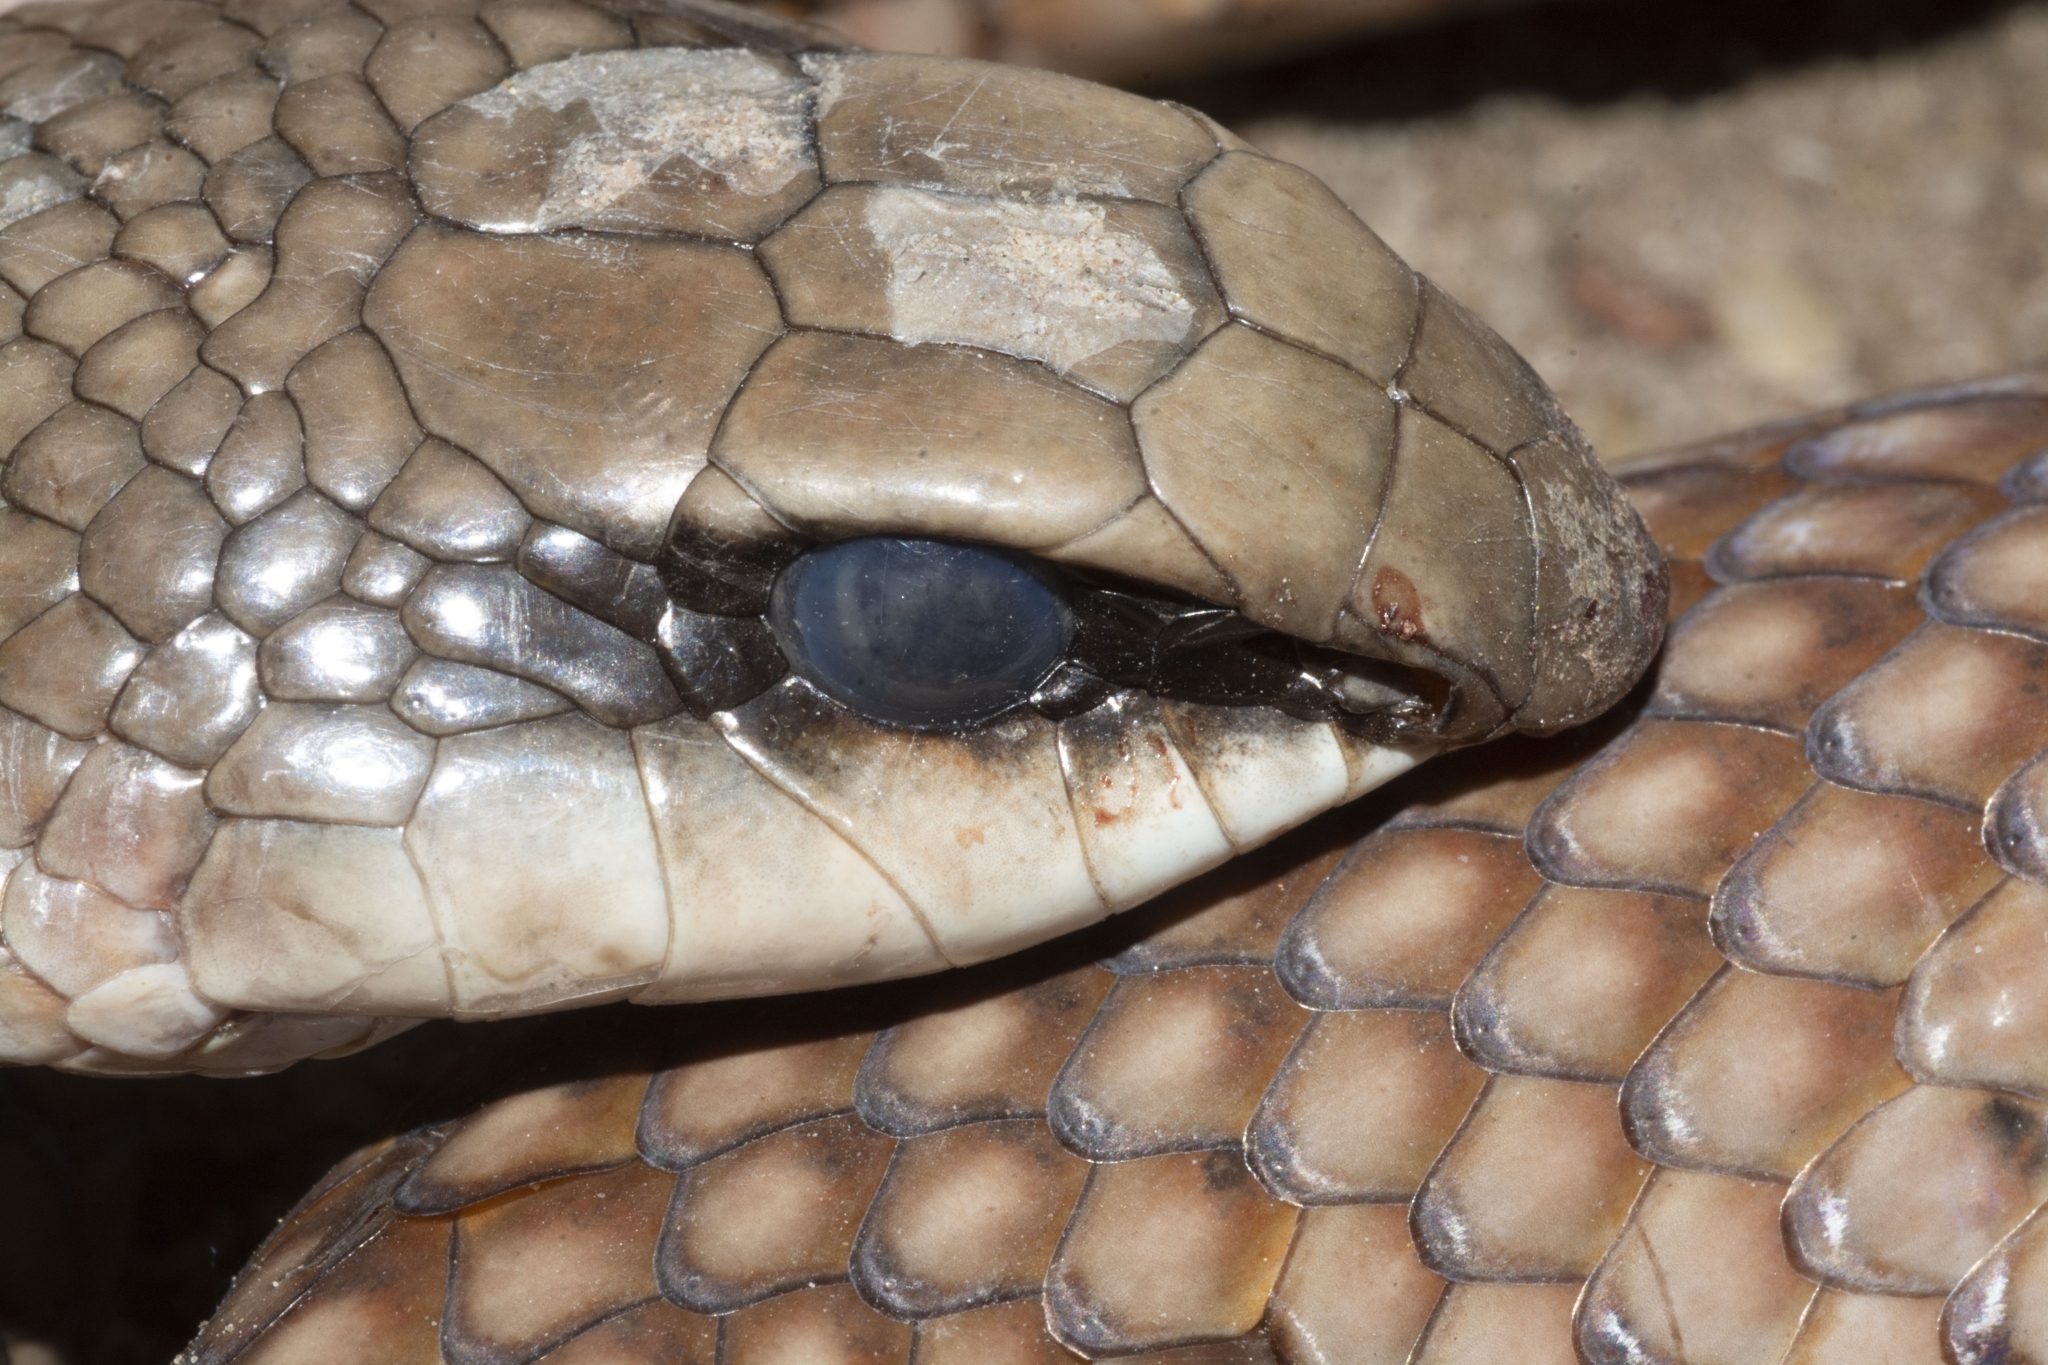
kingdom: Animalia
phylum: Chordata
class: Squamata
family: Psammophiidae
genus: Rhamphiophis
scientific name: Rhamphiophis rostratus
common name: Rufous beaked snake
